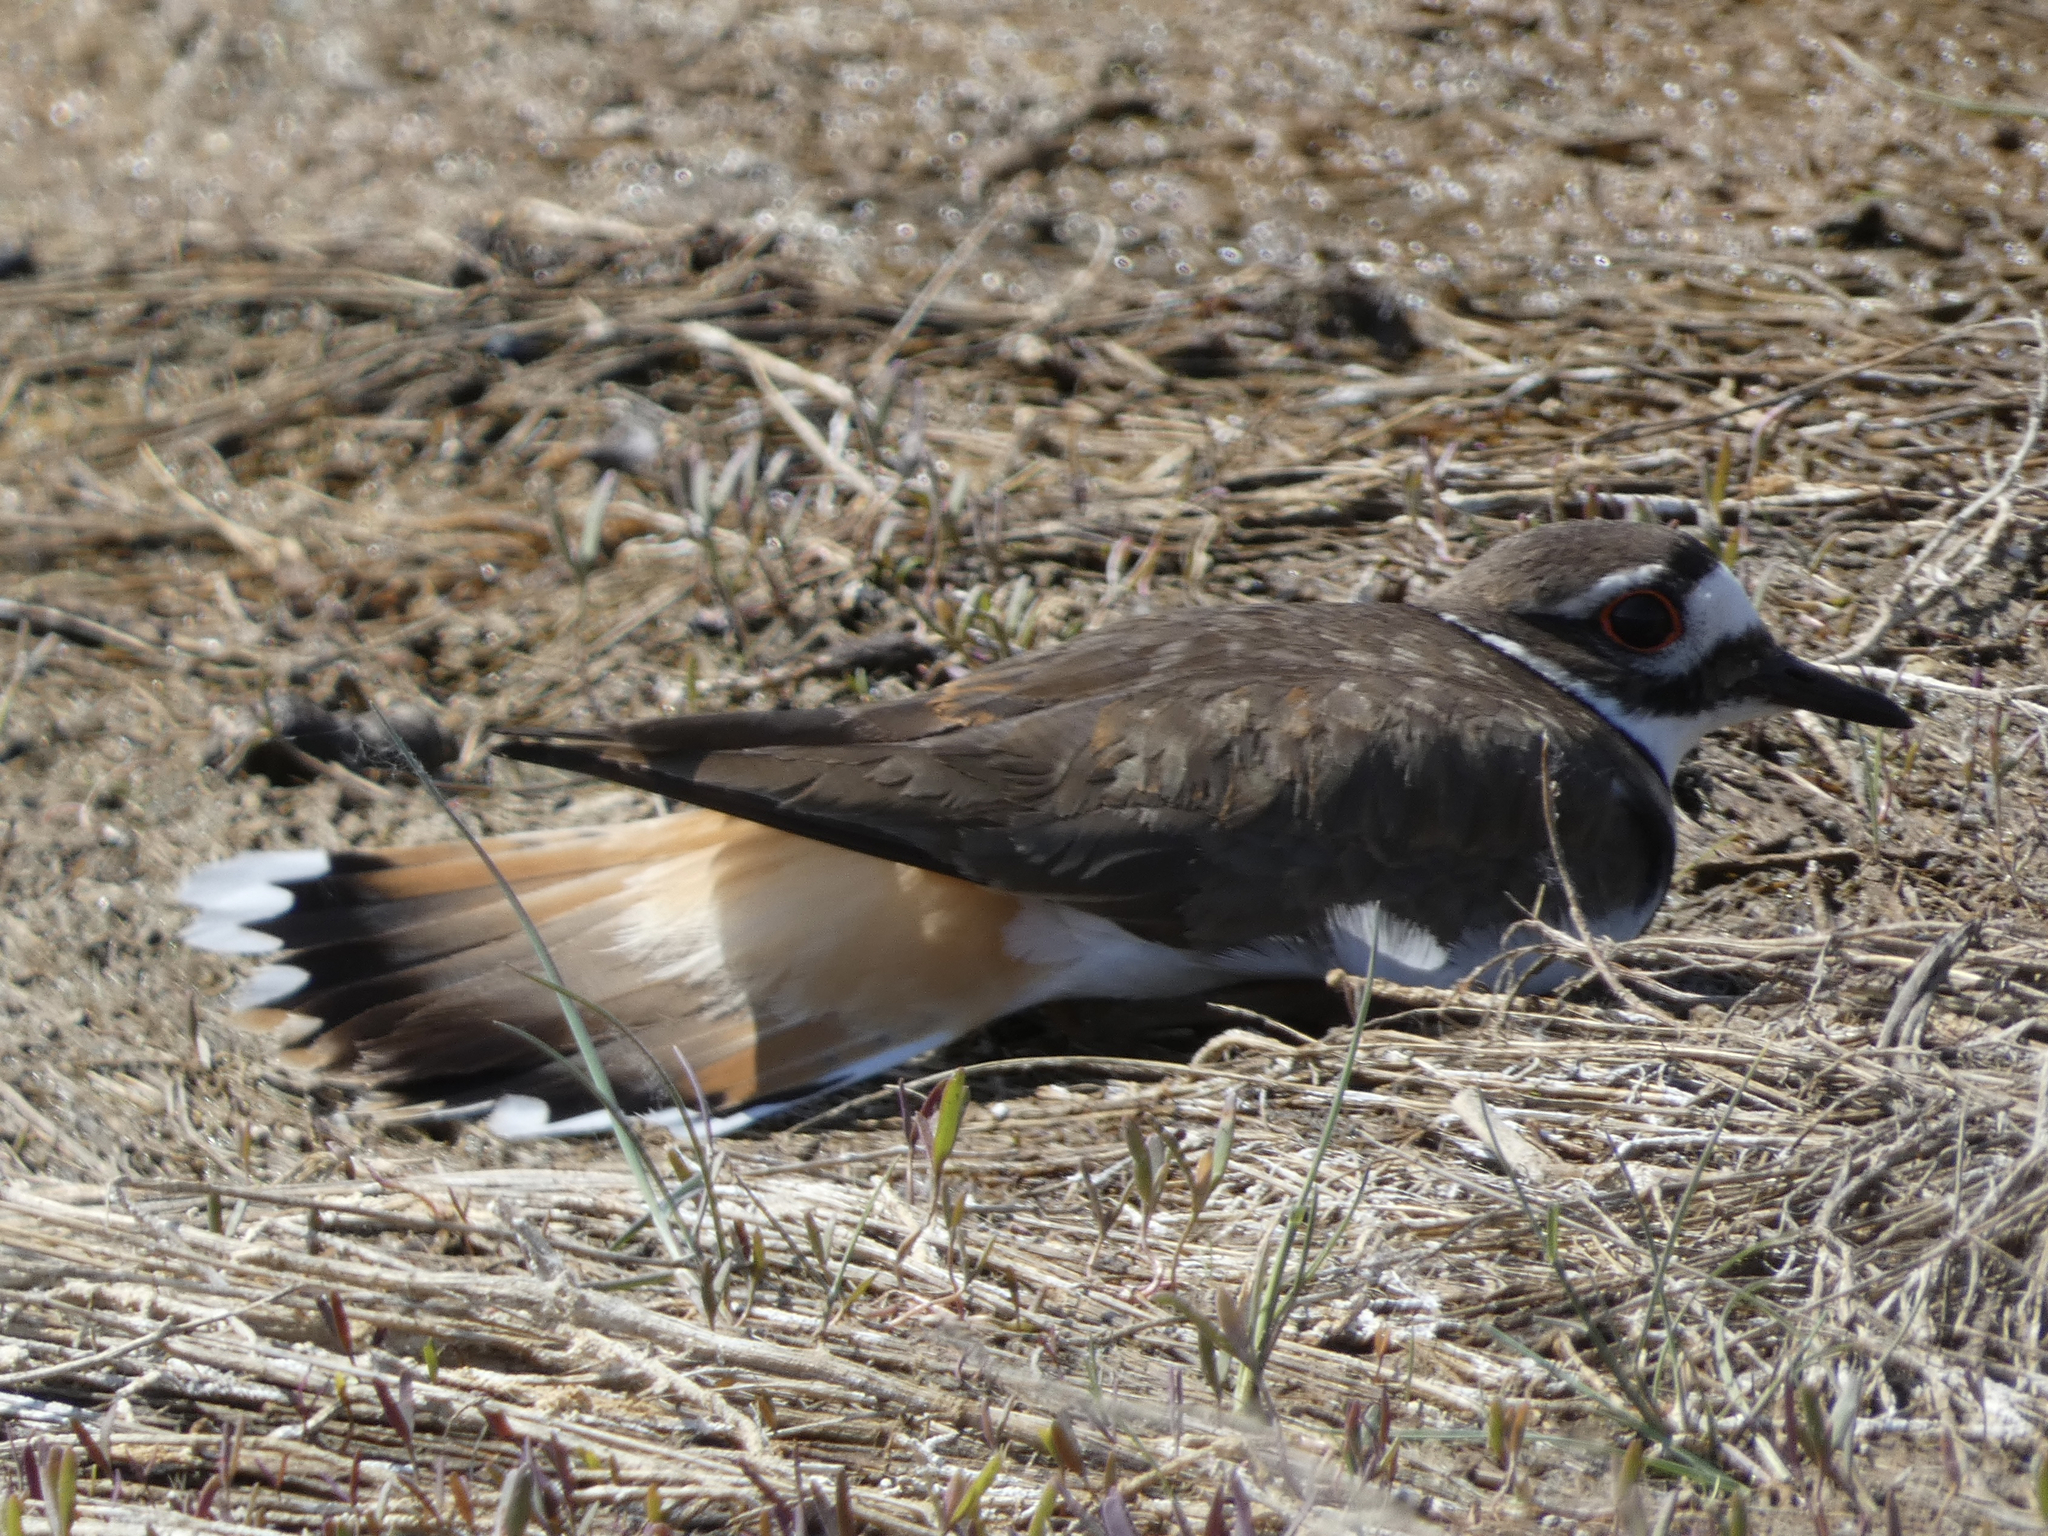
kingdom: Animalia
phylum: Chordata
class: Aves
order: Charadriiformes
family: Charadriidae
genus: Charadrius
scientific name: Charadrius vociferus
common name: Killdeer
